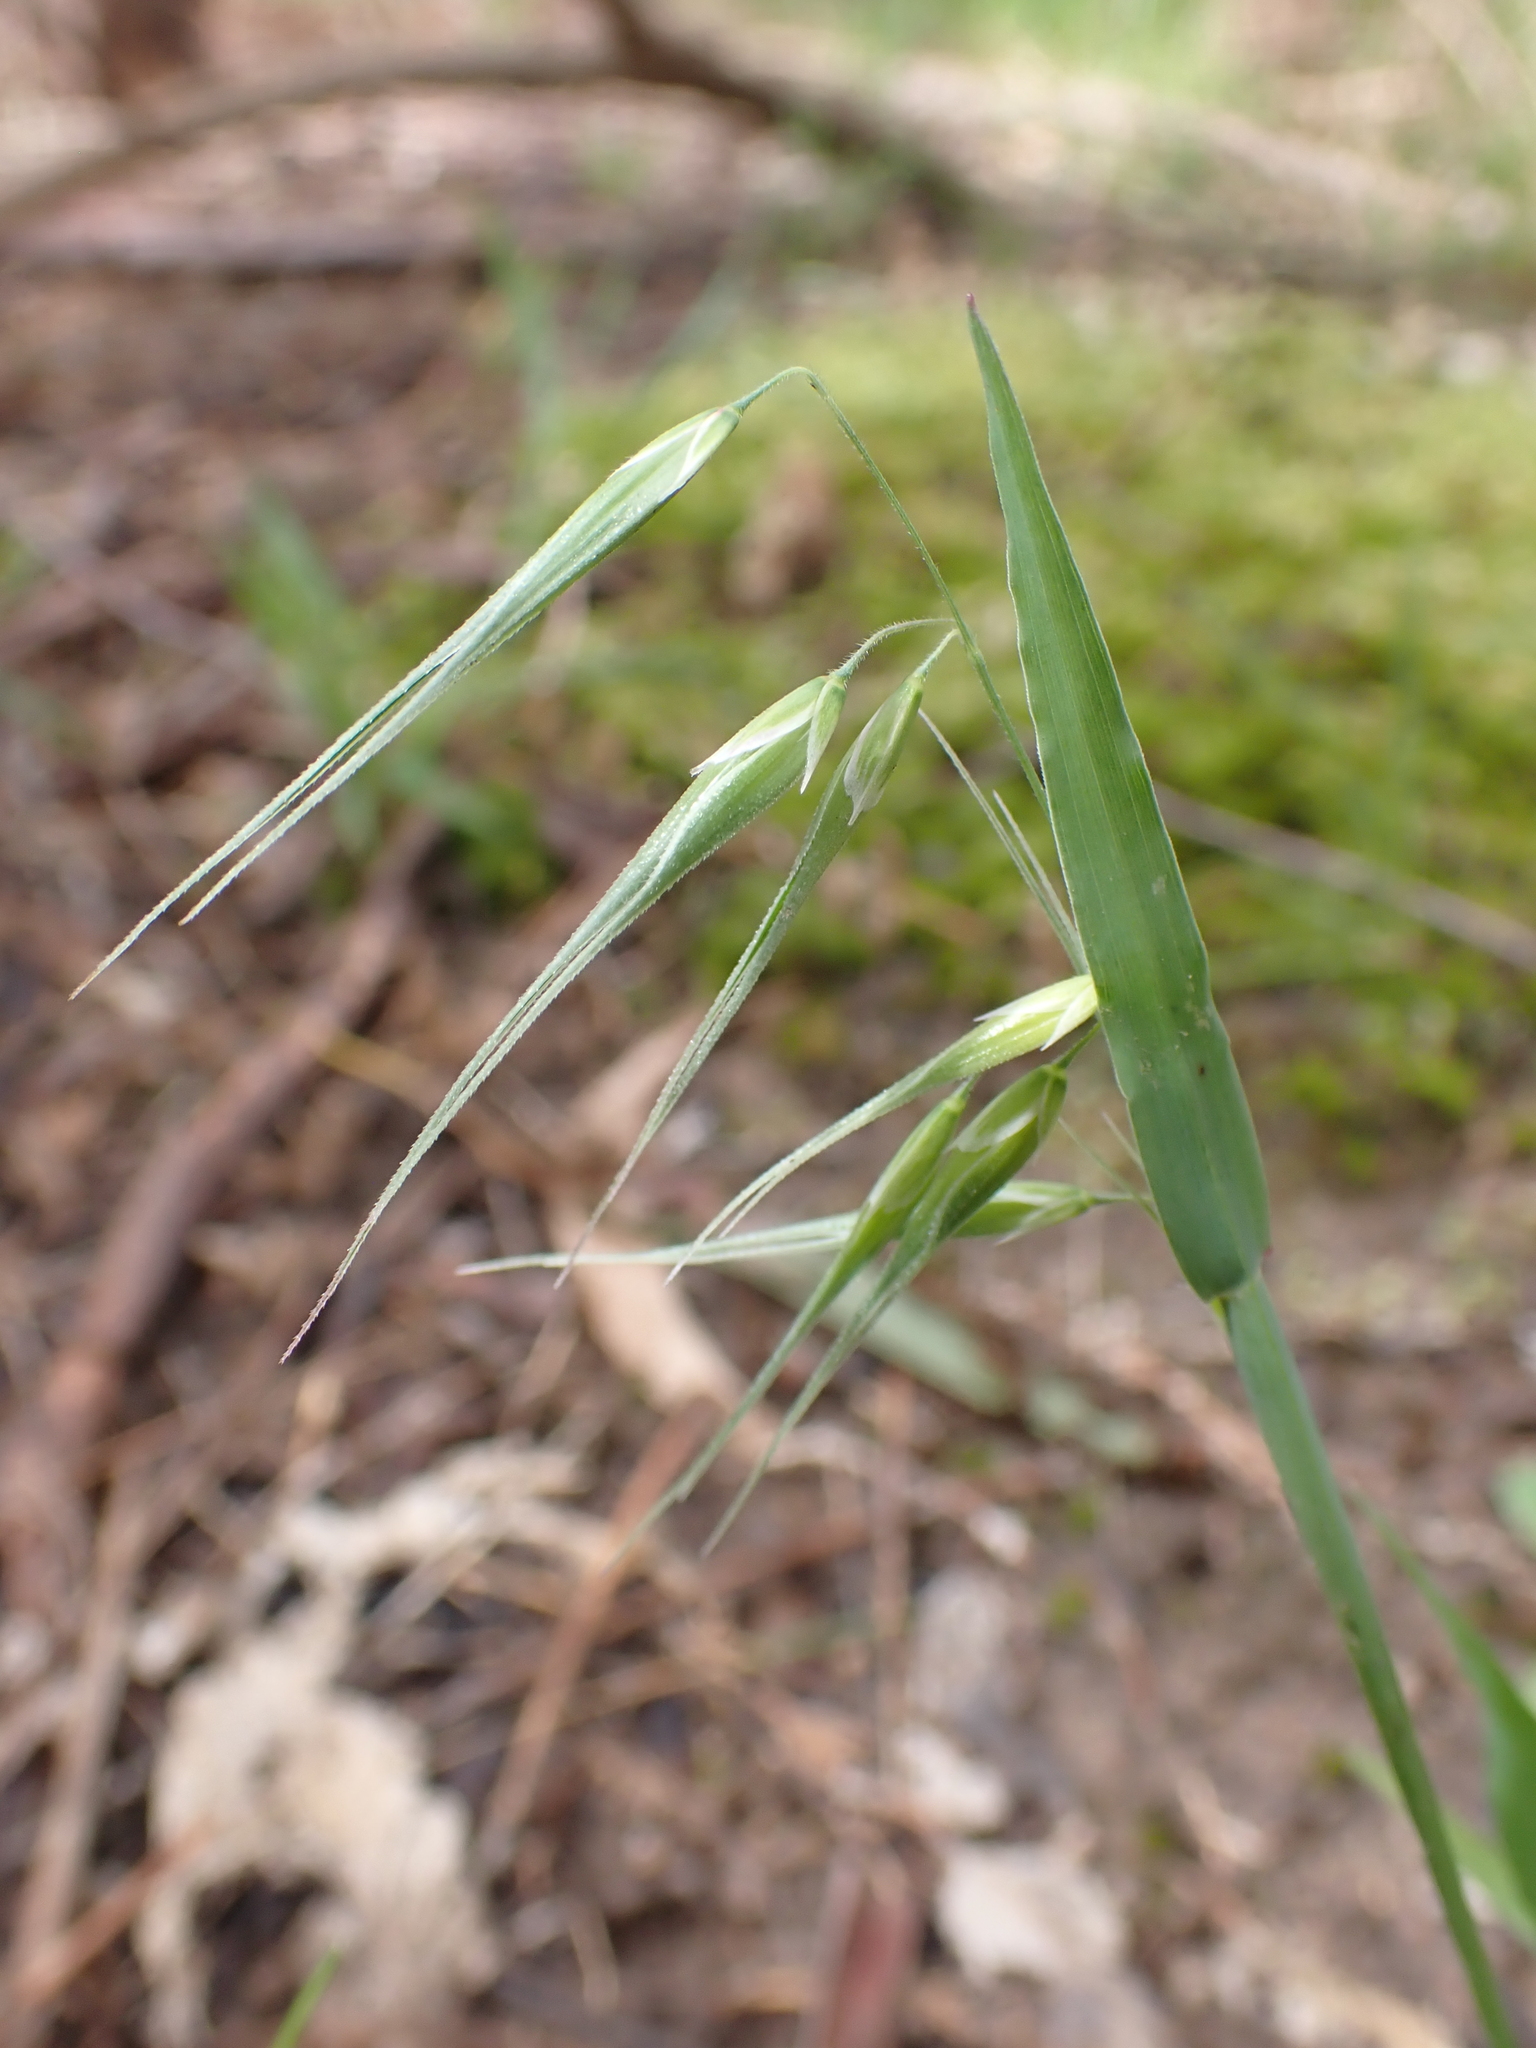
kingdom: Plantae
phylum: Tracheophyta
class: Liliopsida
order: Poales
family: Poaceae
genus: Ehrharta
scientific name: Ehrharta longiflora
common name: Longflowered veldtgrass
